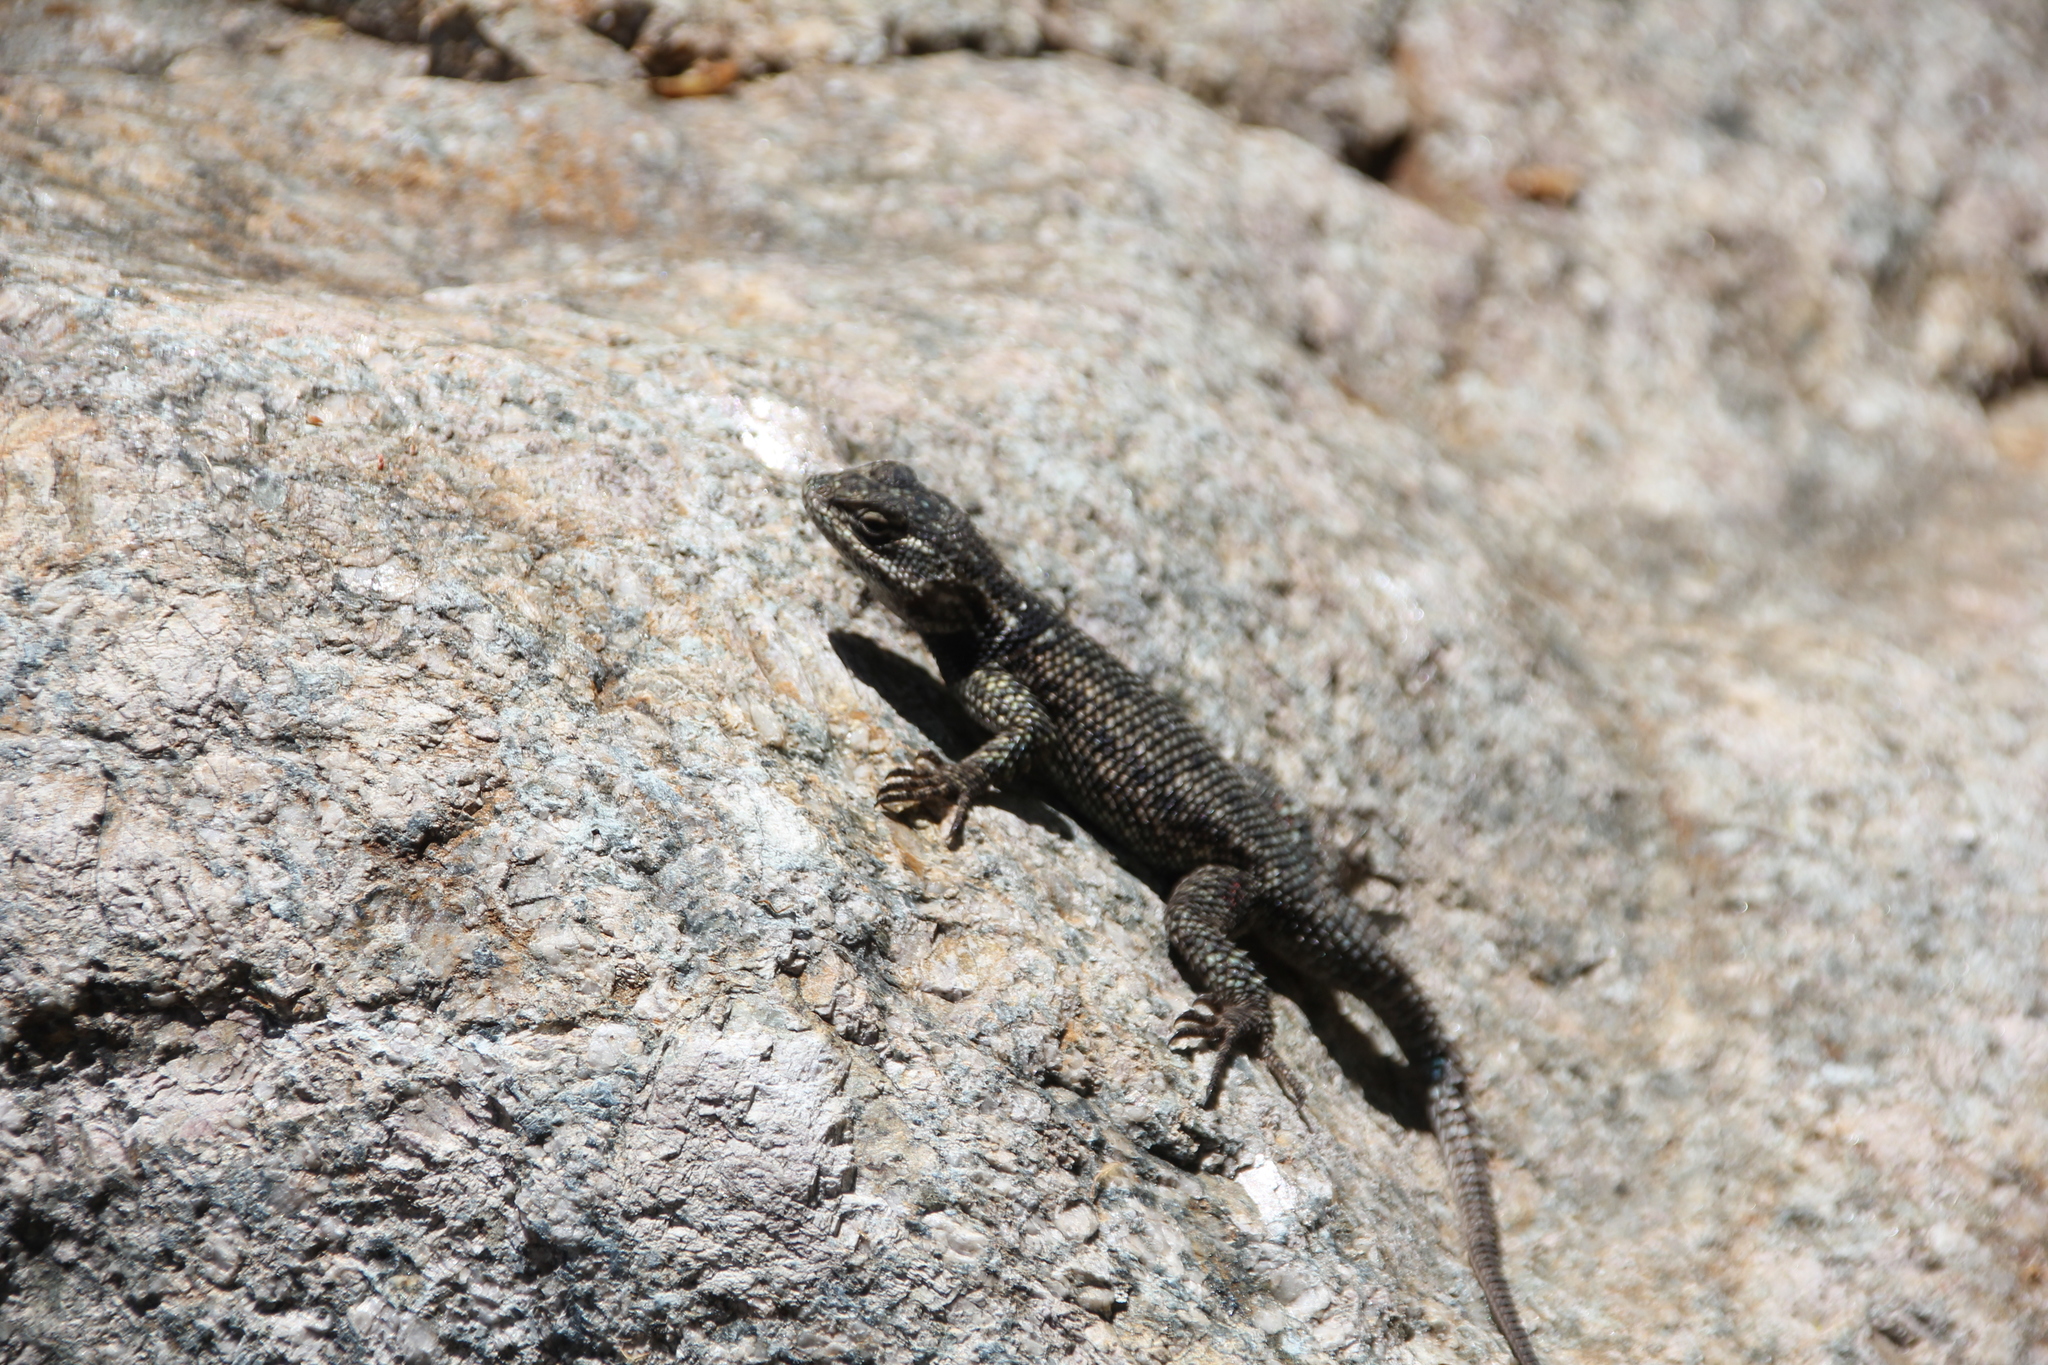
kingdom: Animalia
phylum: Chordata
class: Squamata
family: Phrynosomatidae
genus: Sceloporus
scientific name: Sceloporus jarrovii
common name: Yarrow's spiny lizard
